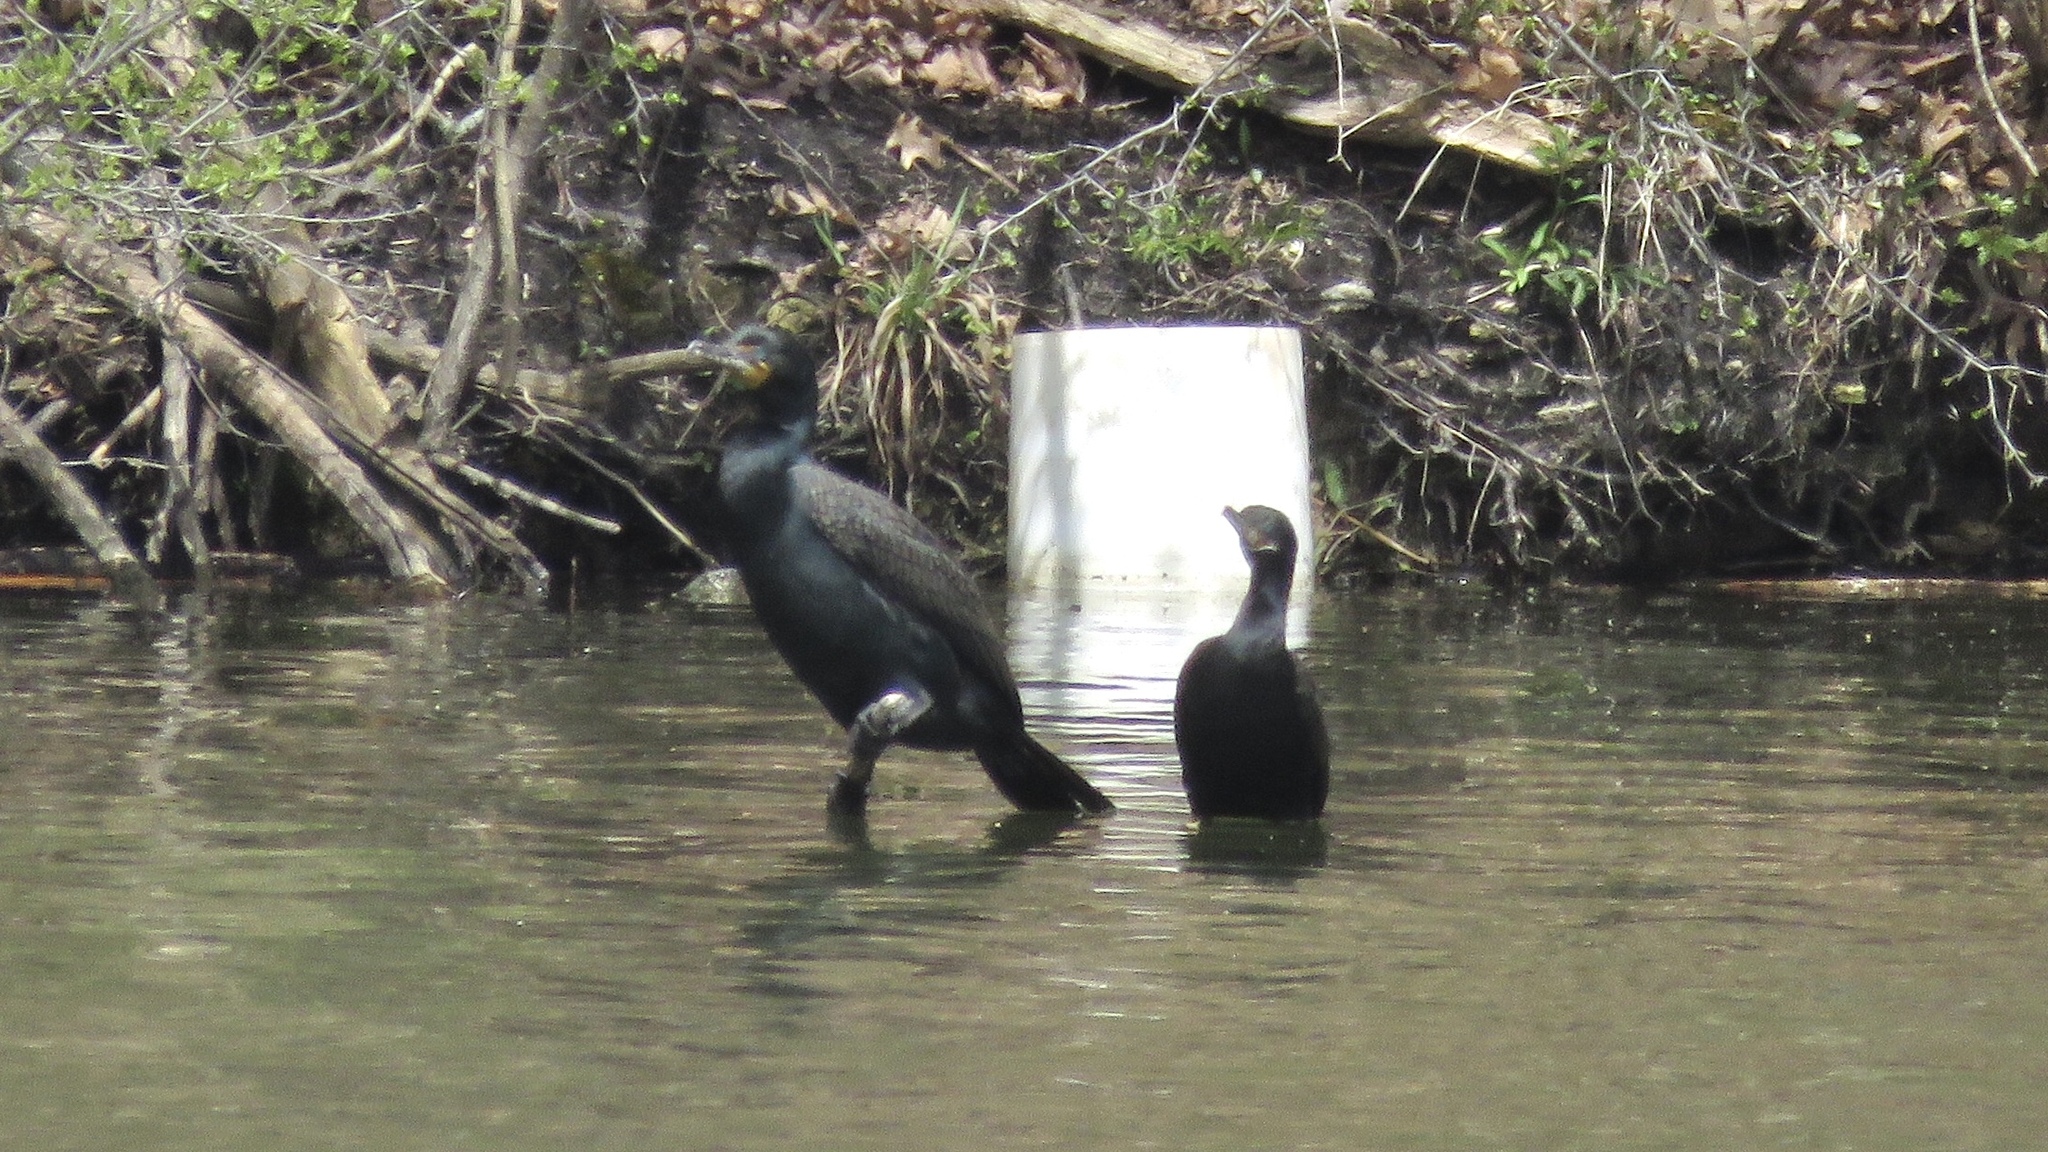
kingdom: Animalia
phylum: Chordata
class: Aves
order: Suliformes
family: Phalacrocoracidae
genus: Phalacrocorax
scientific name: Phalacrocorax brasilianus
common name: Neotropic cormorant
